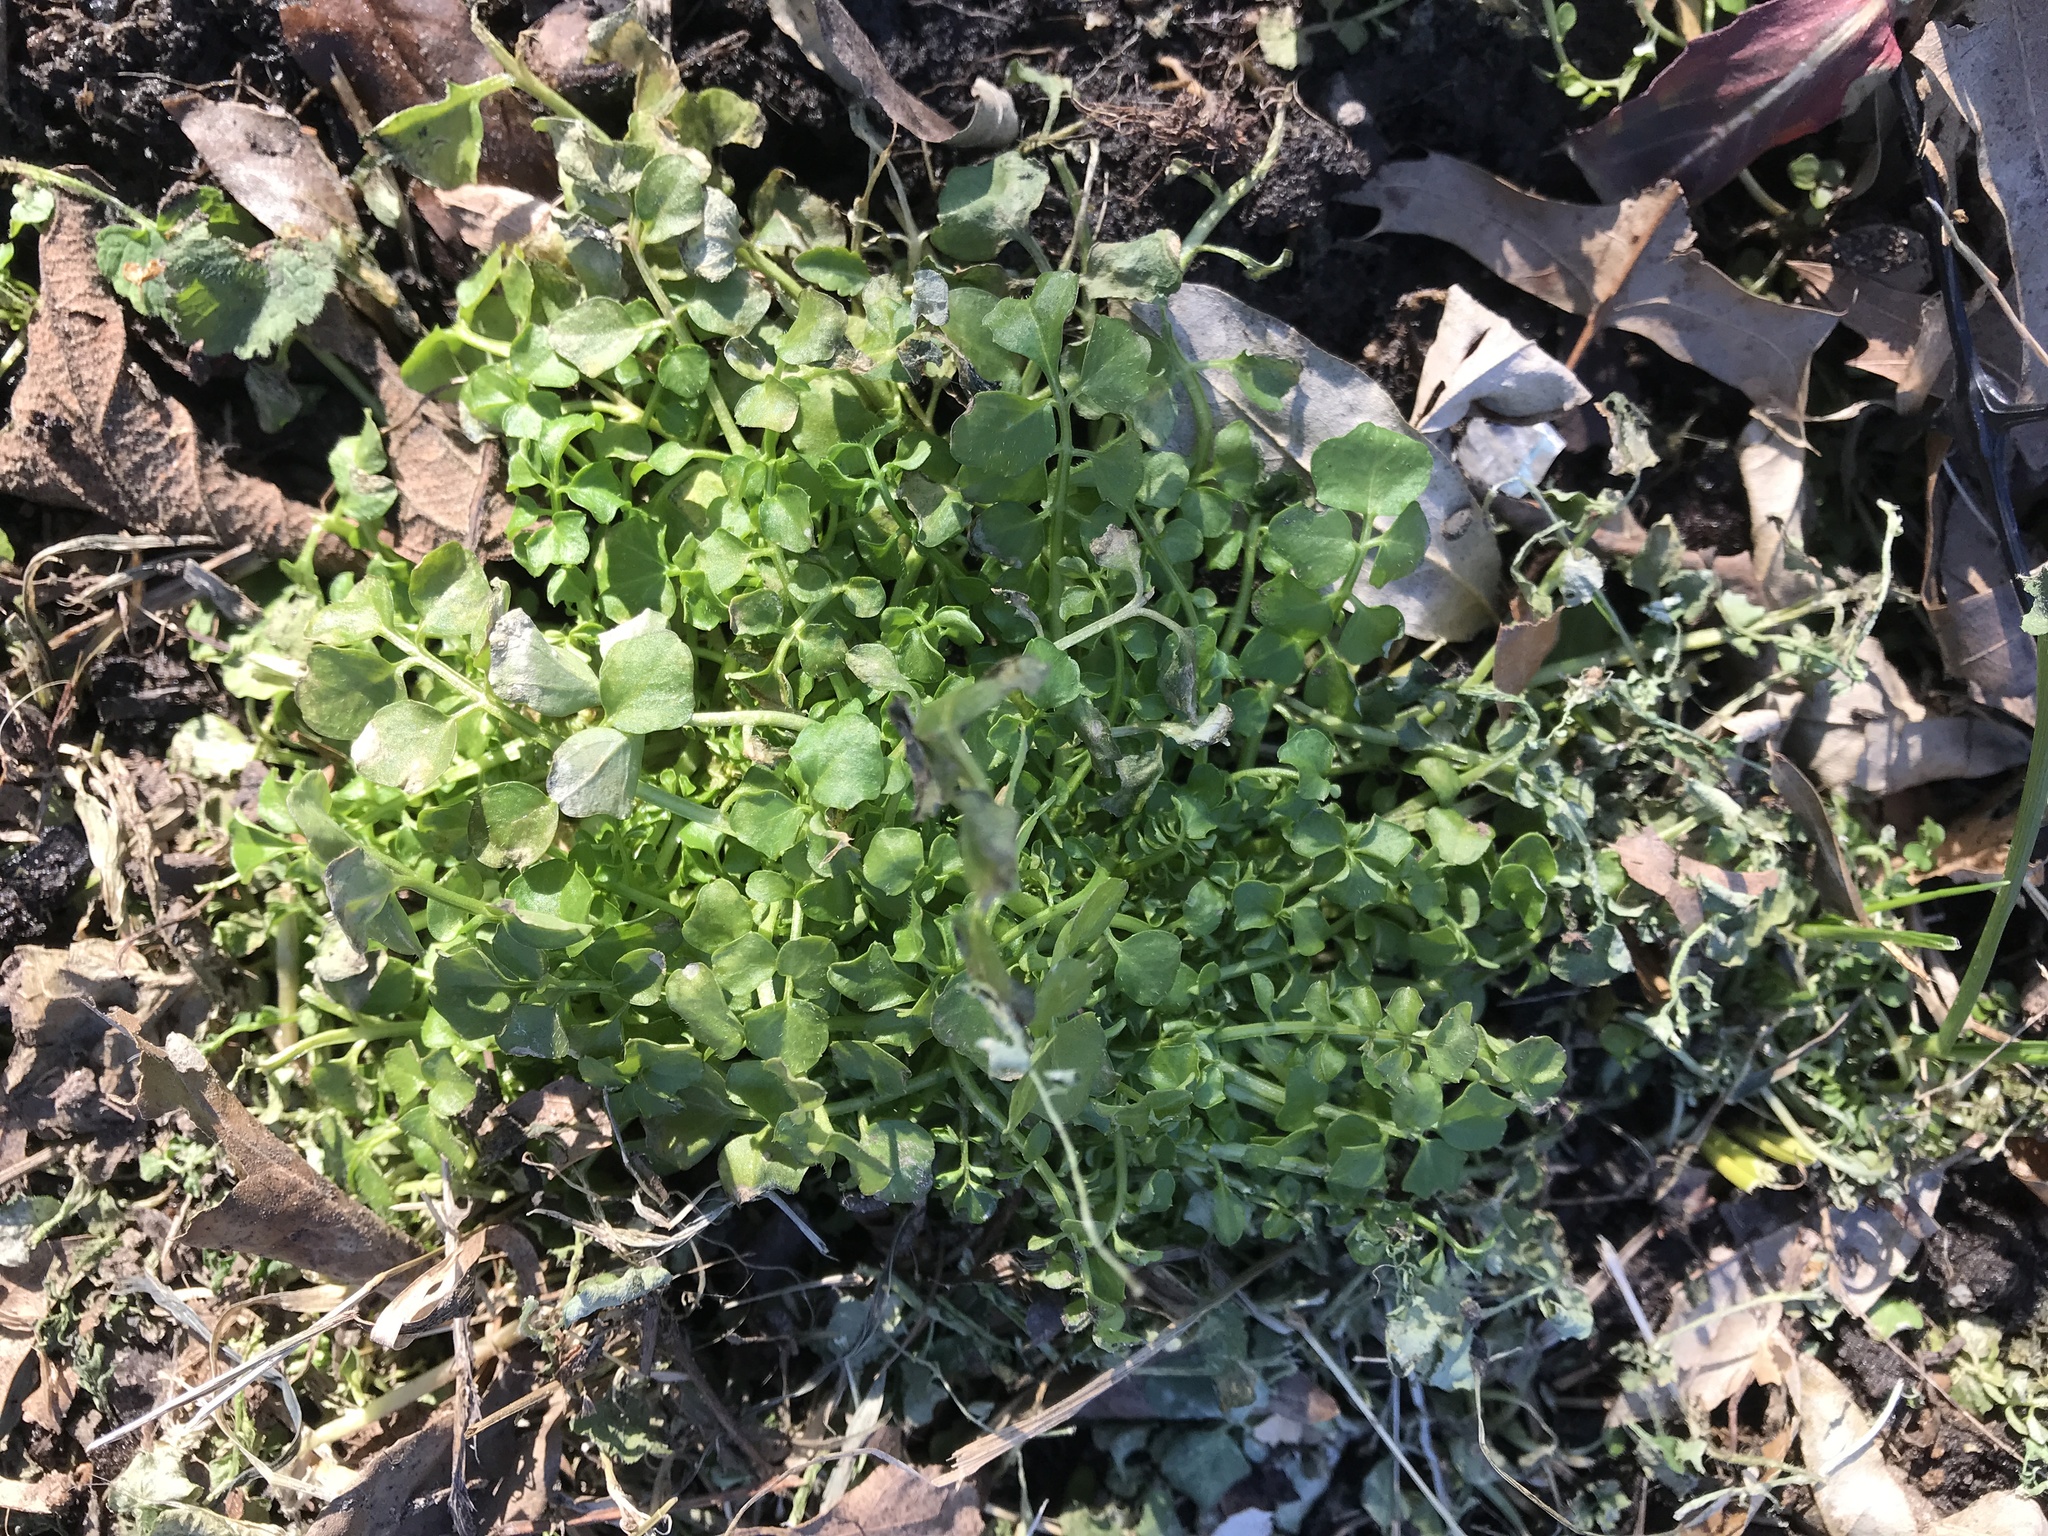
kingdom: Plantae
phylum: Tracheophyta
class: Magnoliopsida
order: Brassicales
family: Brassicaceae
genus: Cardamine
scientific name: Cardamine hirsuta
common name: Hairy bittercress
